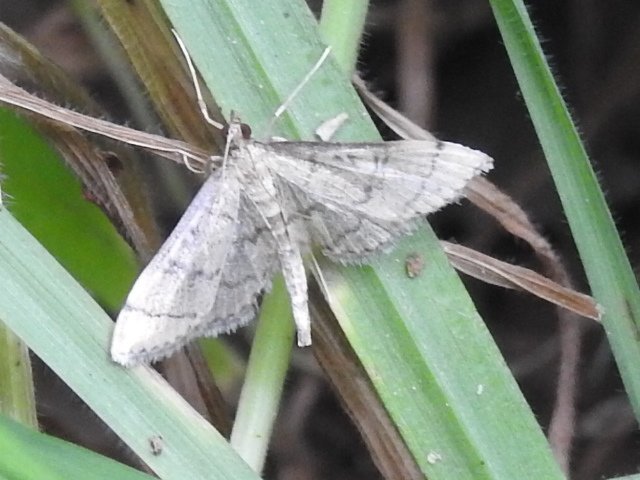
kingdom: Animalia
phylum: Arthropoda
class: Insecta
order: Lepidoptera
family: Crambidae
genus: Lamprosema
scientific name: Lamprosema Blepharomastix ranalis
